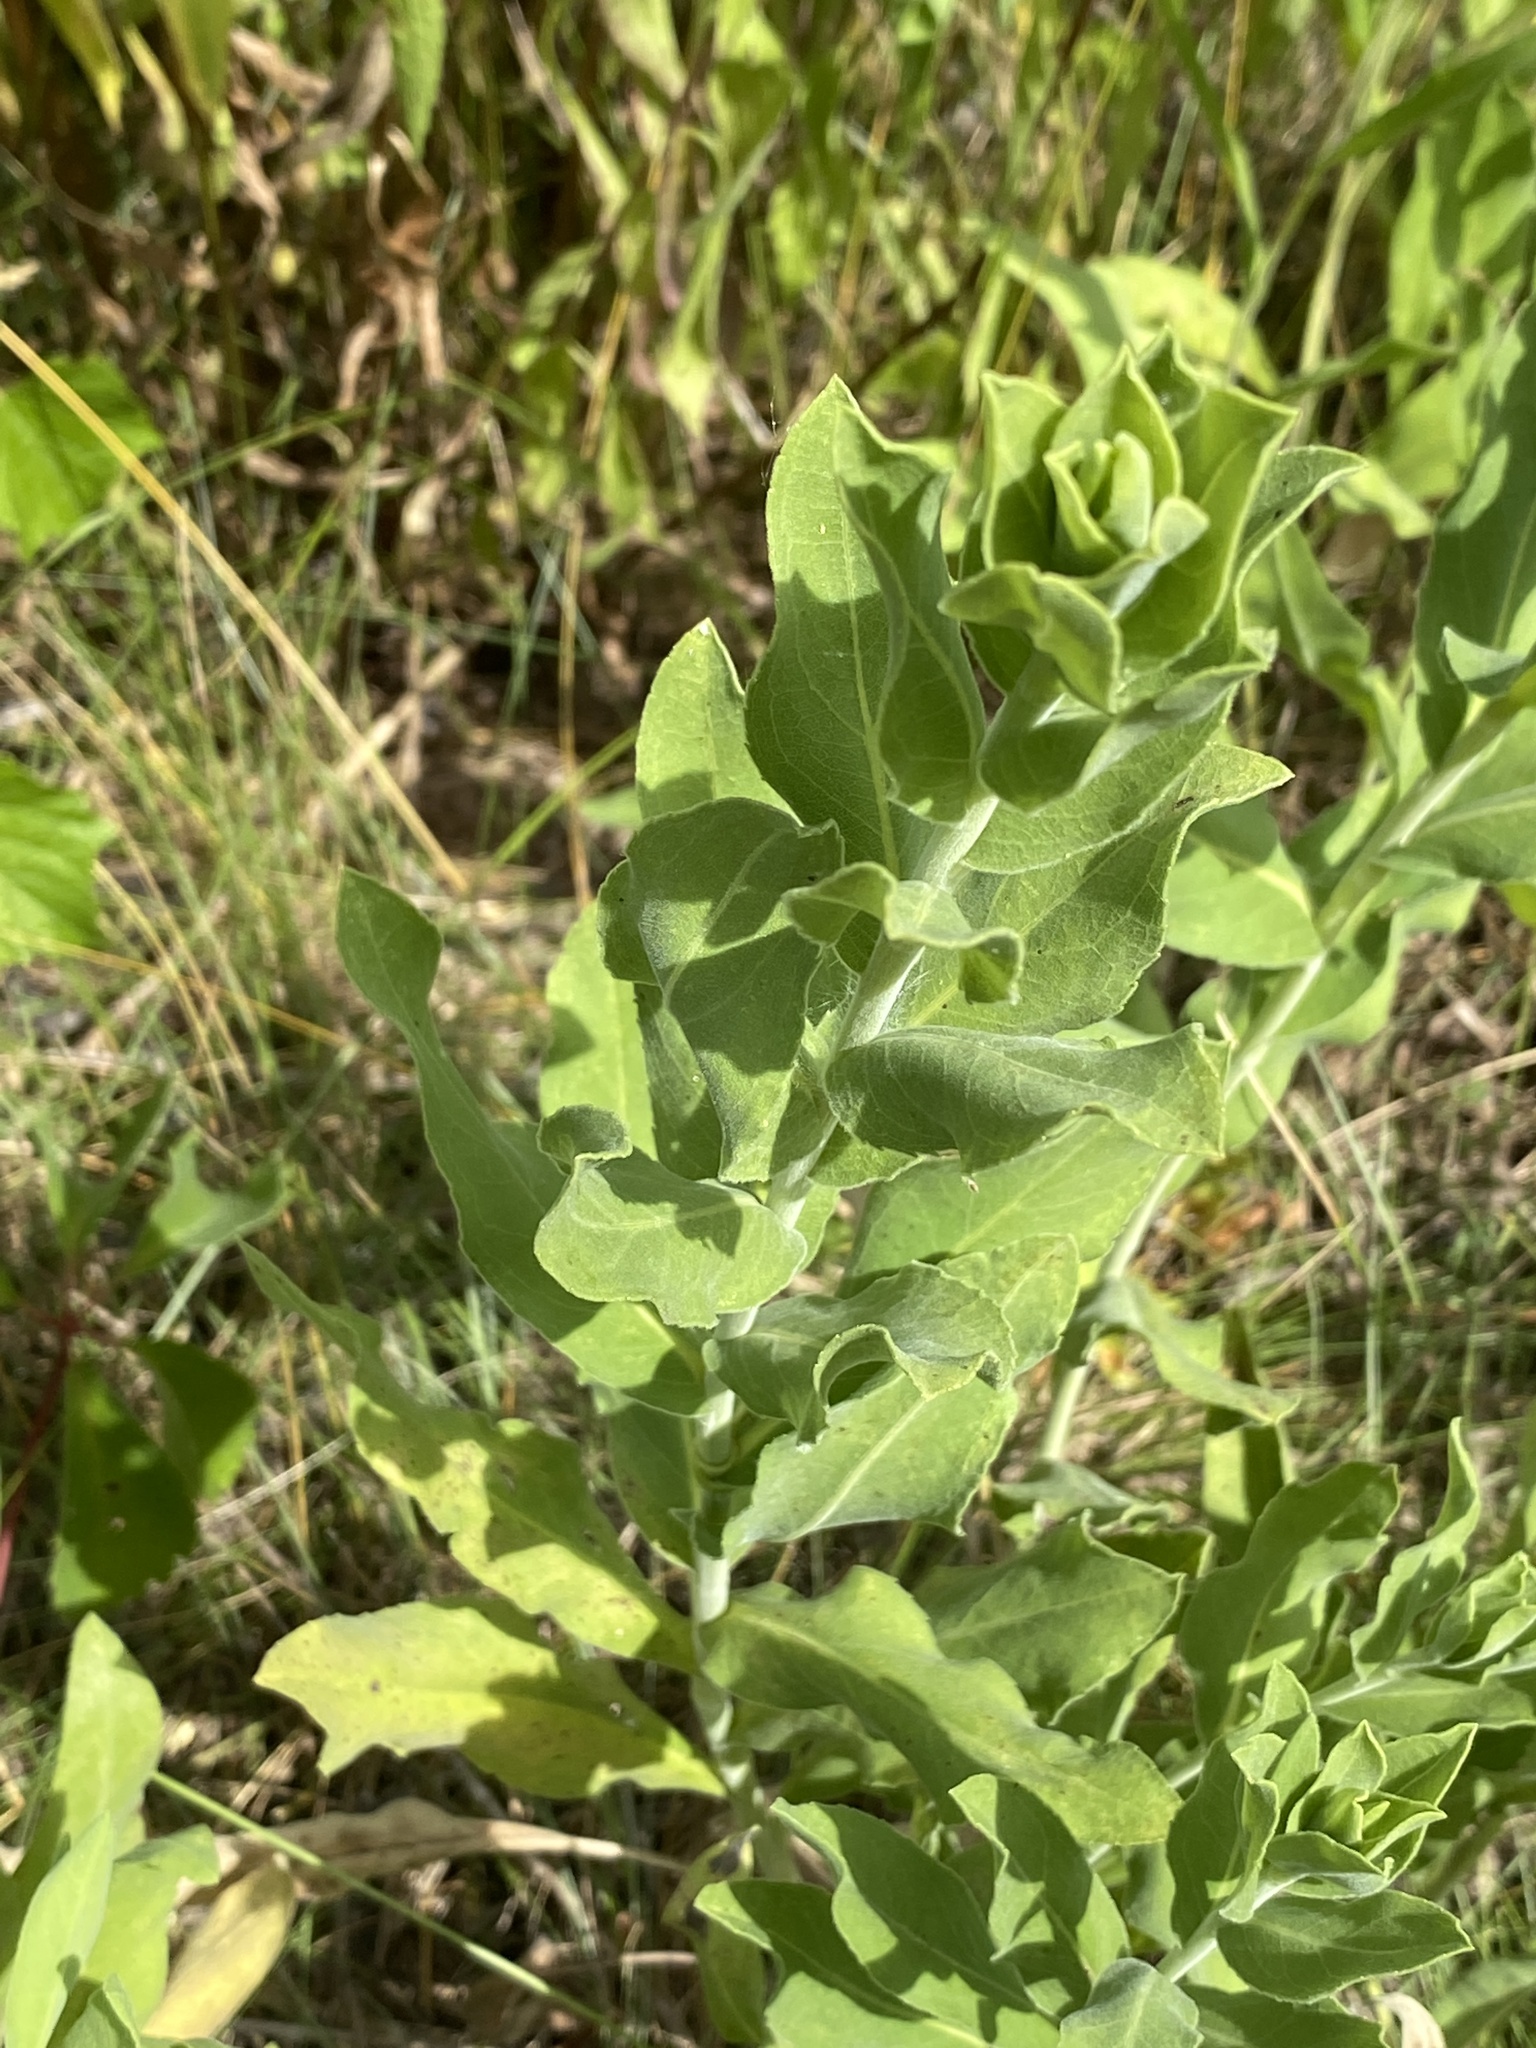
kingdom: Plantae
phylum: Tracheophyta
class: Magnoliopsida
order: Asterales
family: Asteraceae
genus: Solidago
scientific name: Solidago rigida
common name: Rigid goldenrod
